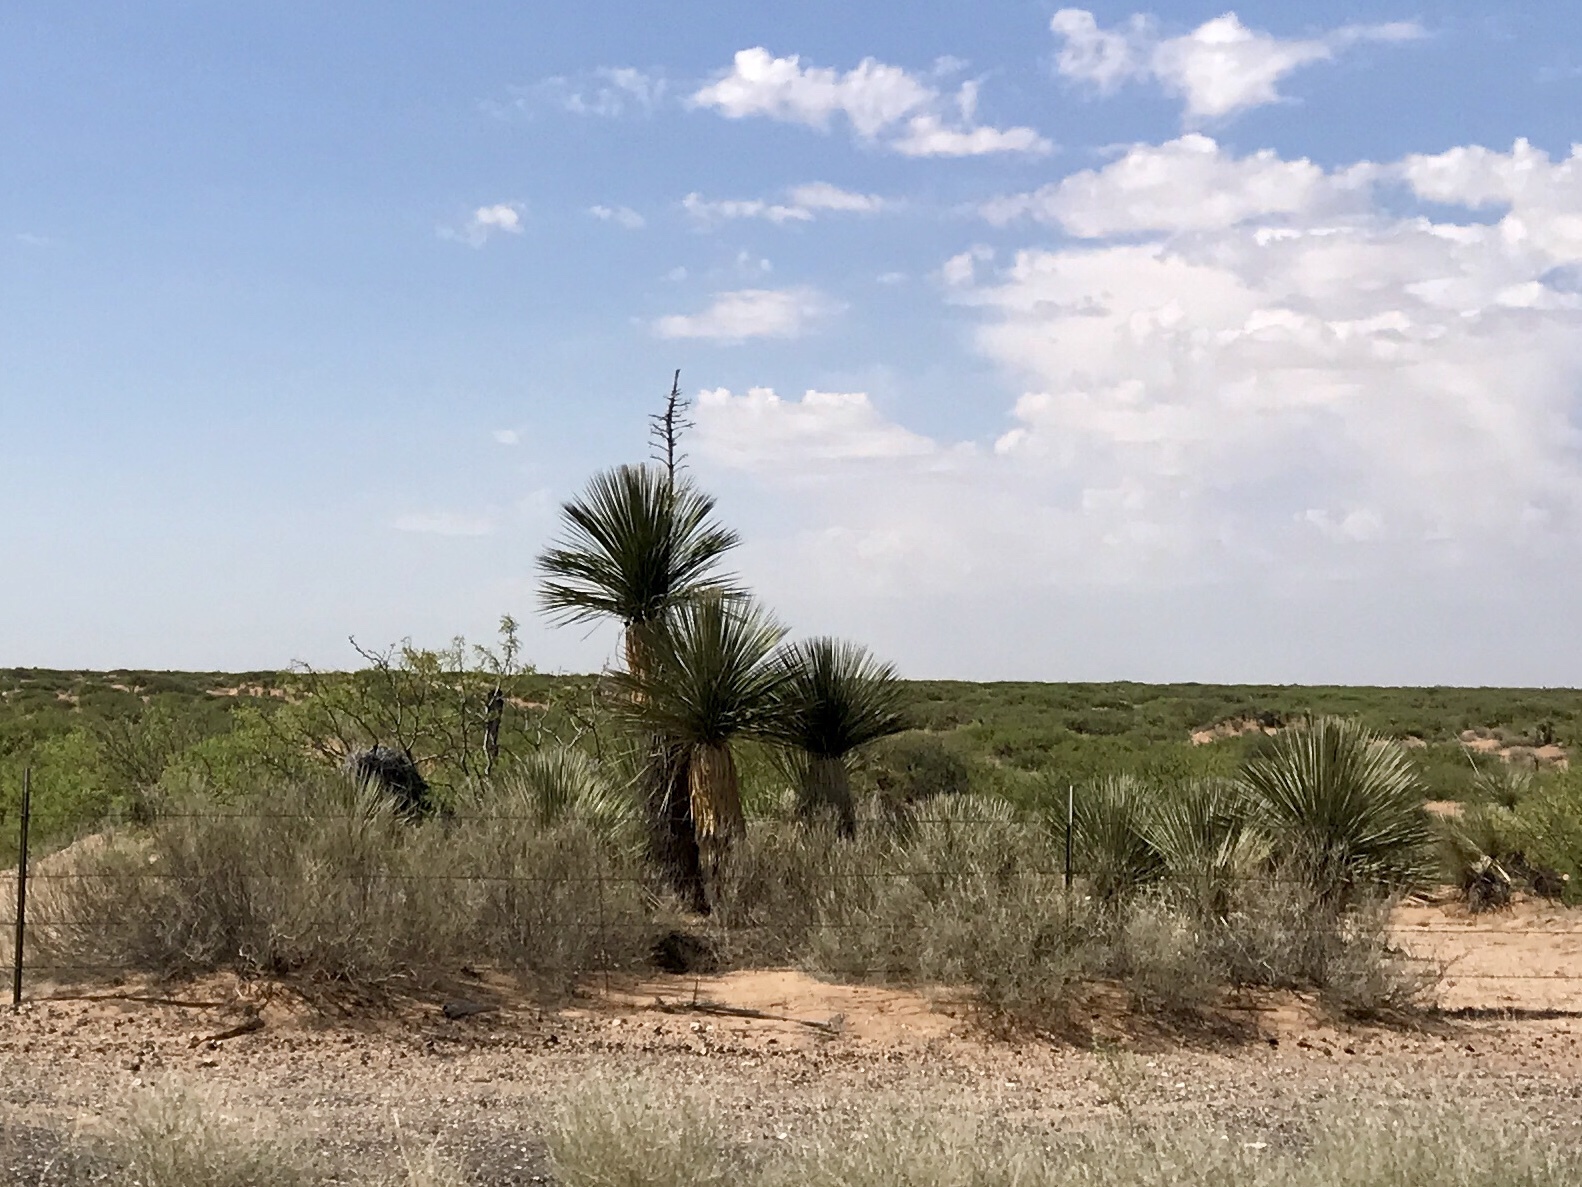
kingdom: Plantae
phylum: Tracheophyta
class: Liliopsida
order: Asparagales
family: Asparagaceae
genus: Yucca
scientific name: Yucca elata
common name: Palmella
